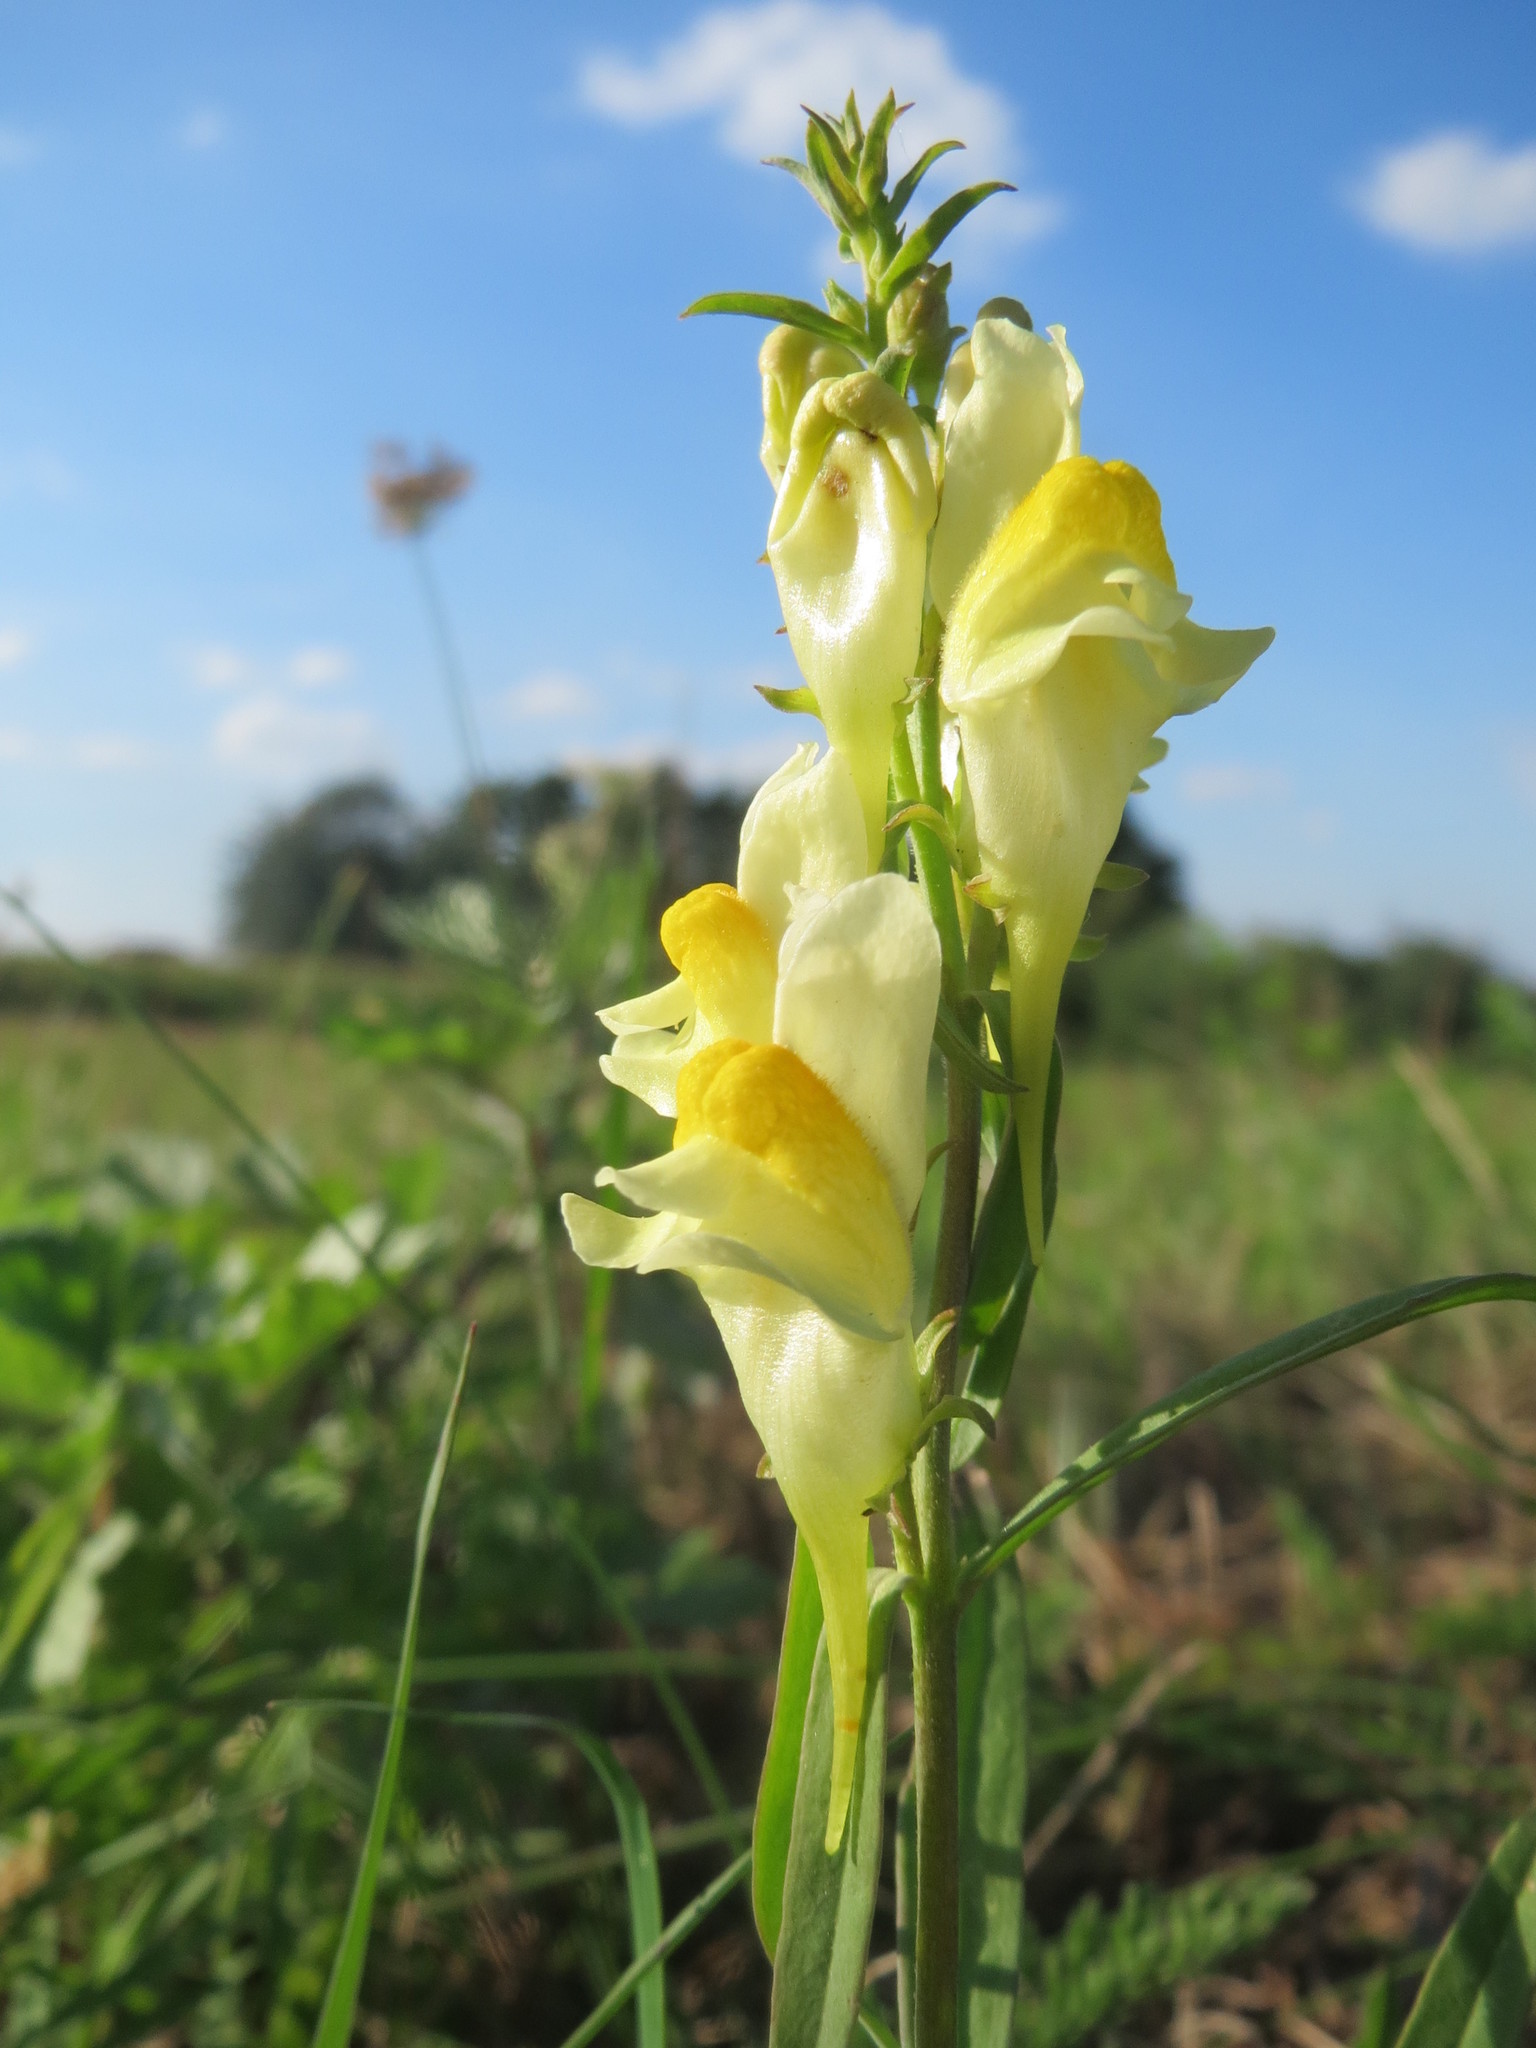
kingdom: Plantae
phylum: Tracheophyta
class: Magnoliopsida
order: Lamiales
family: Plantaginaceae
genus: Linaria
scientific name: Linaria vulgaris
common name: Butter and eggs
